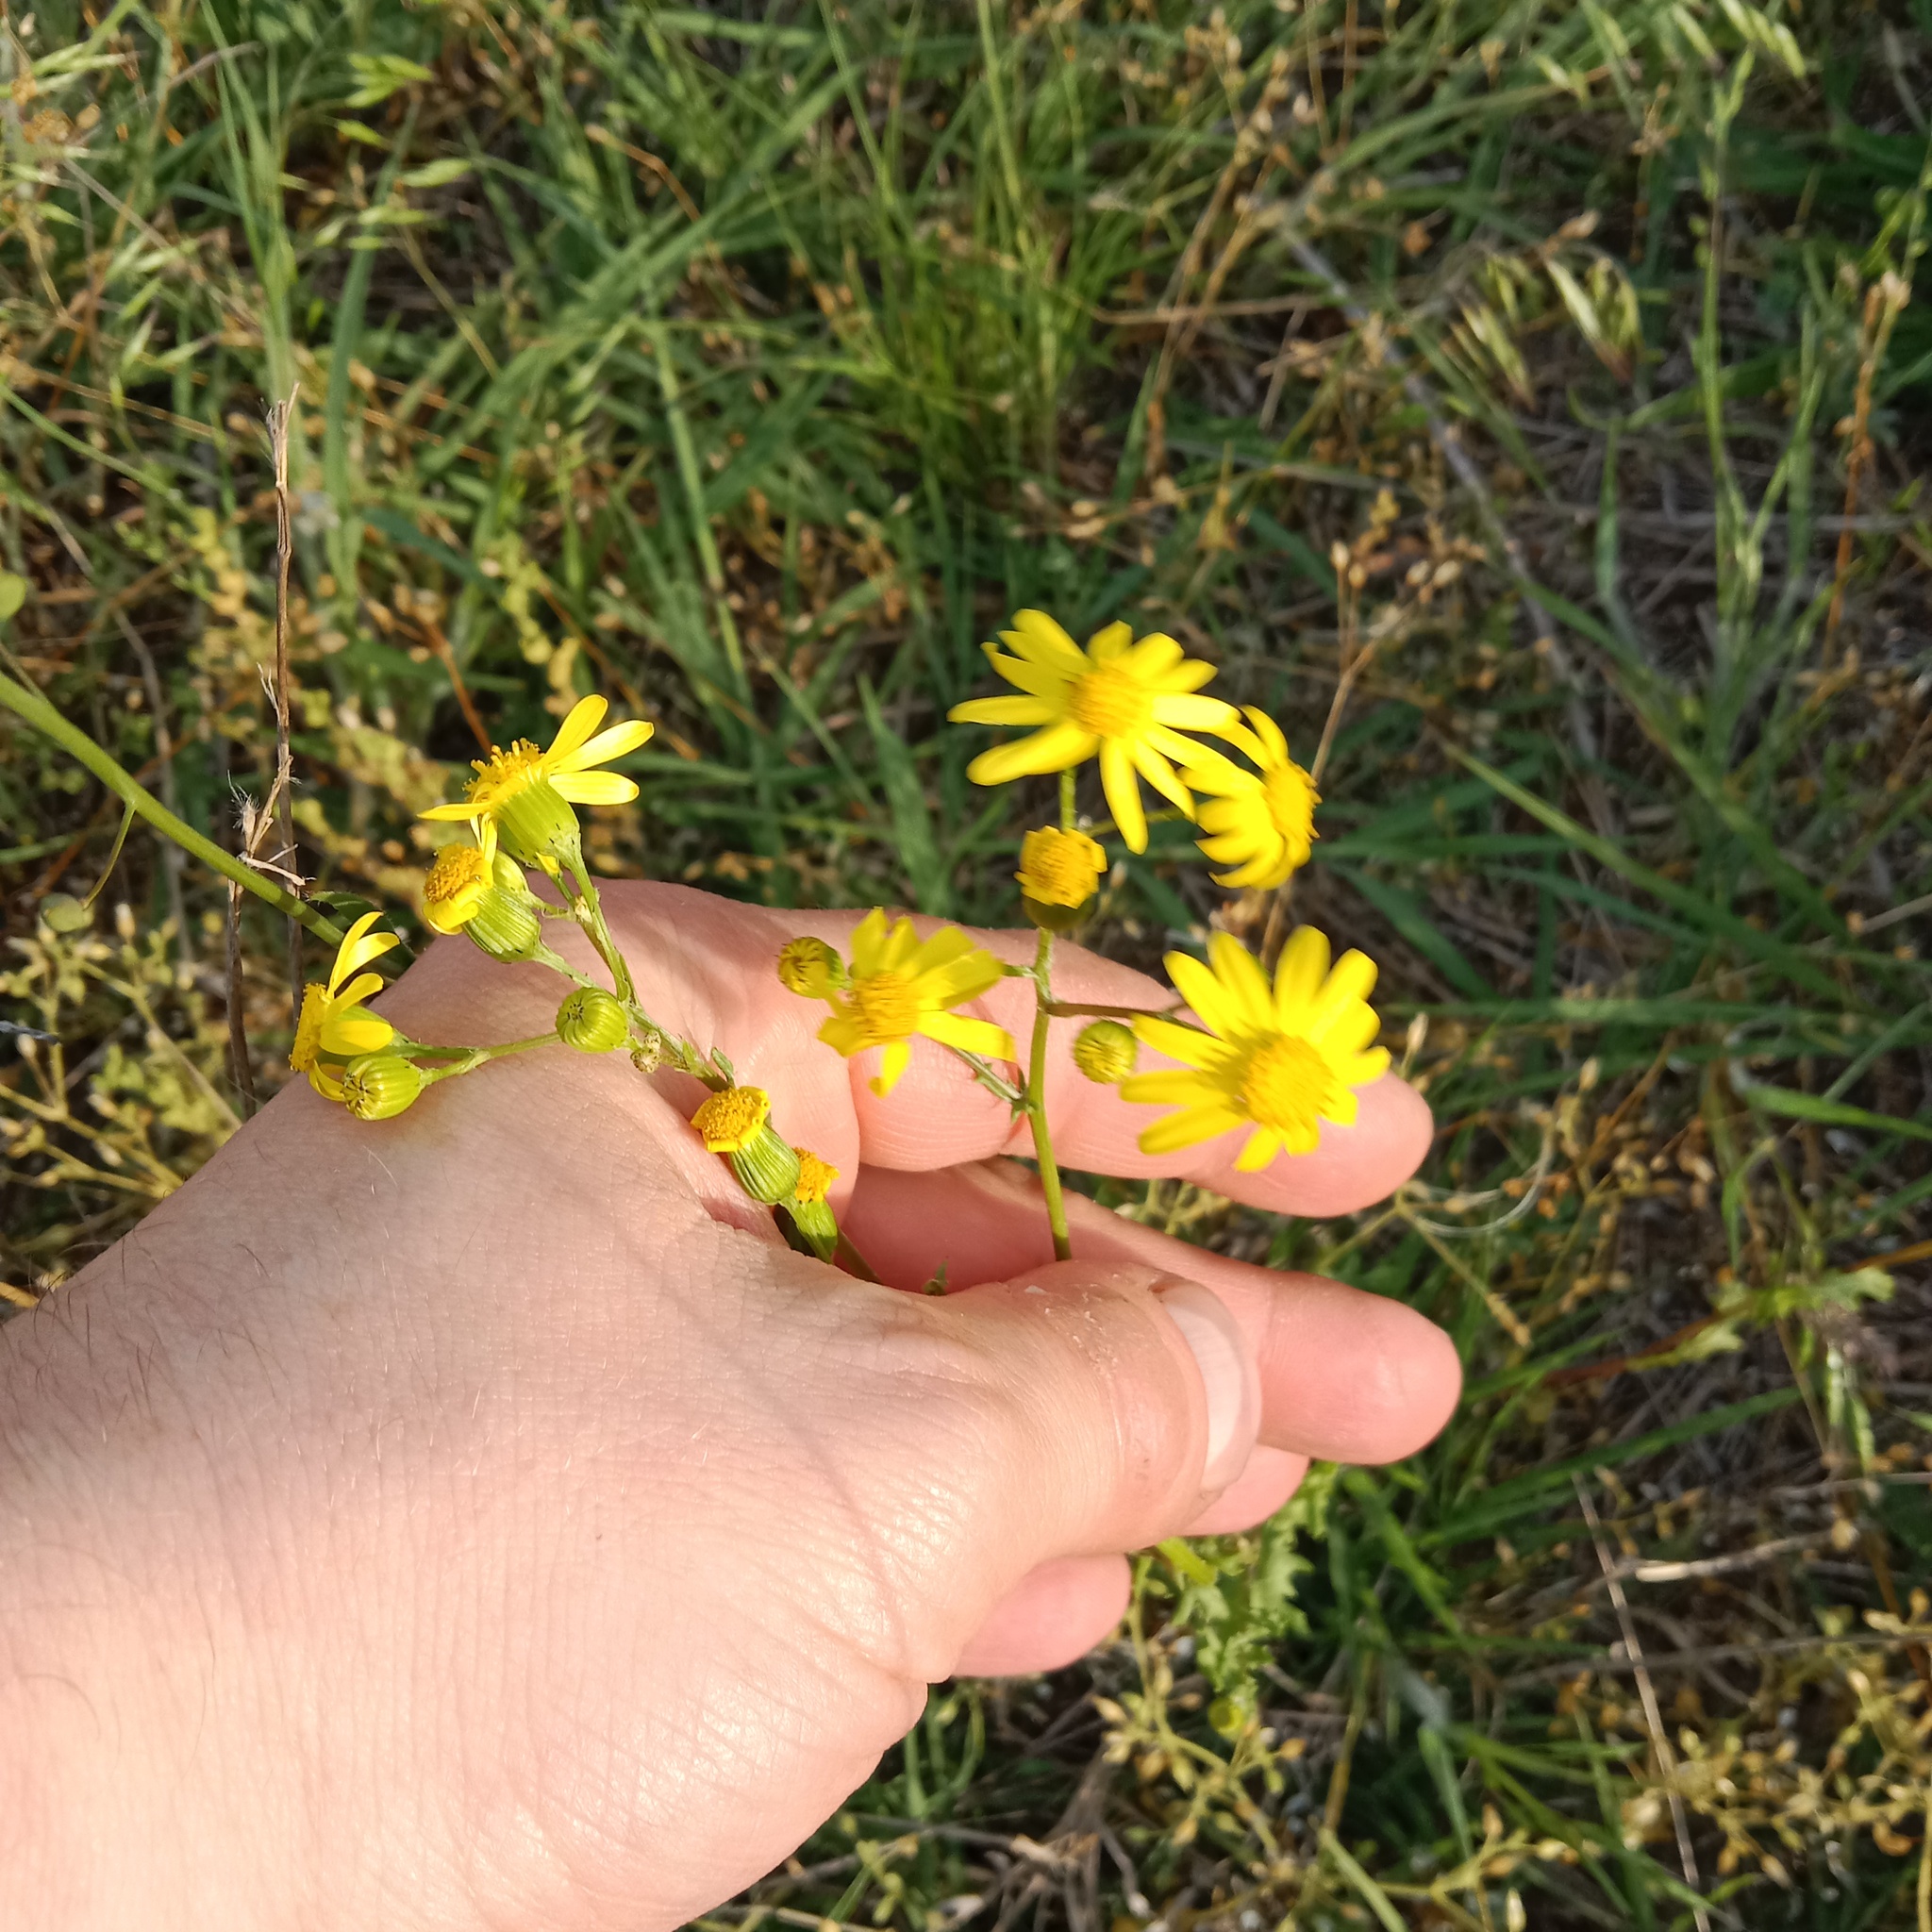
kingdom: Plantae
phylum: Tracheophyta
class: Magnoliopsida
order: Asterales
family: Asteraceae
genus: Senecio
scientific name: Senecio vernalis
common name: Eastern groundsel
